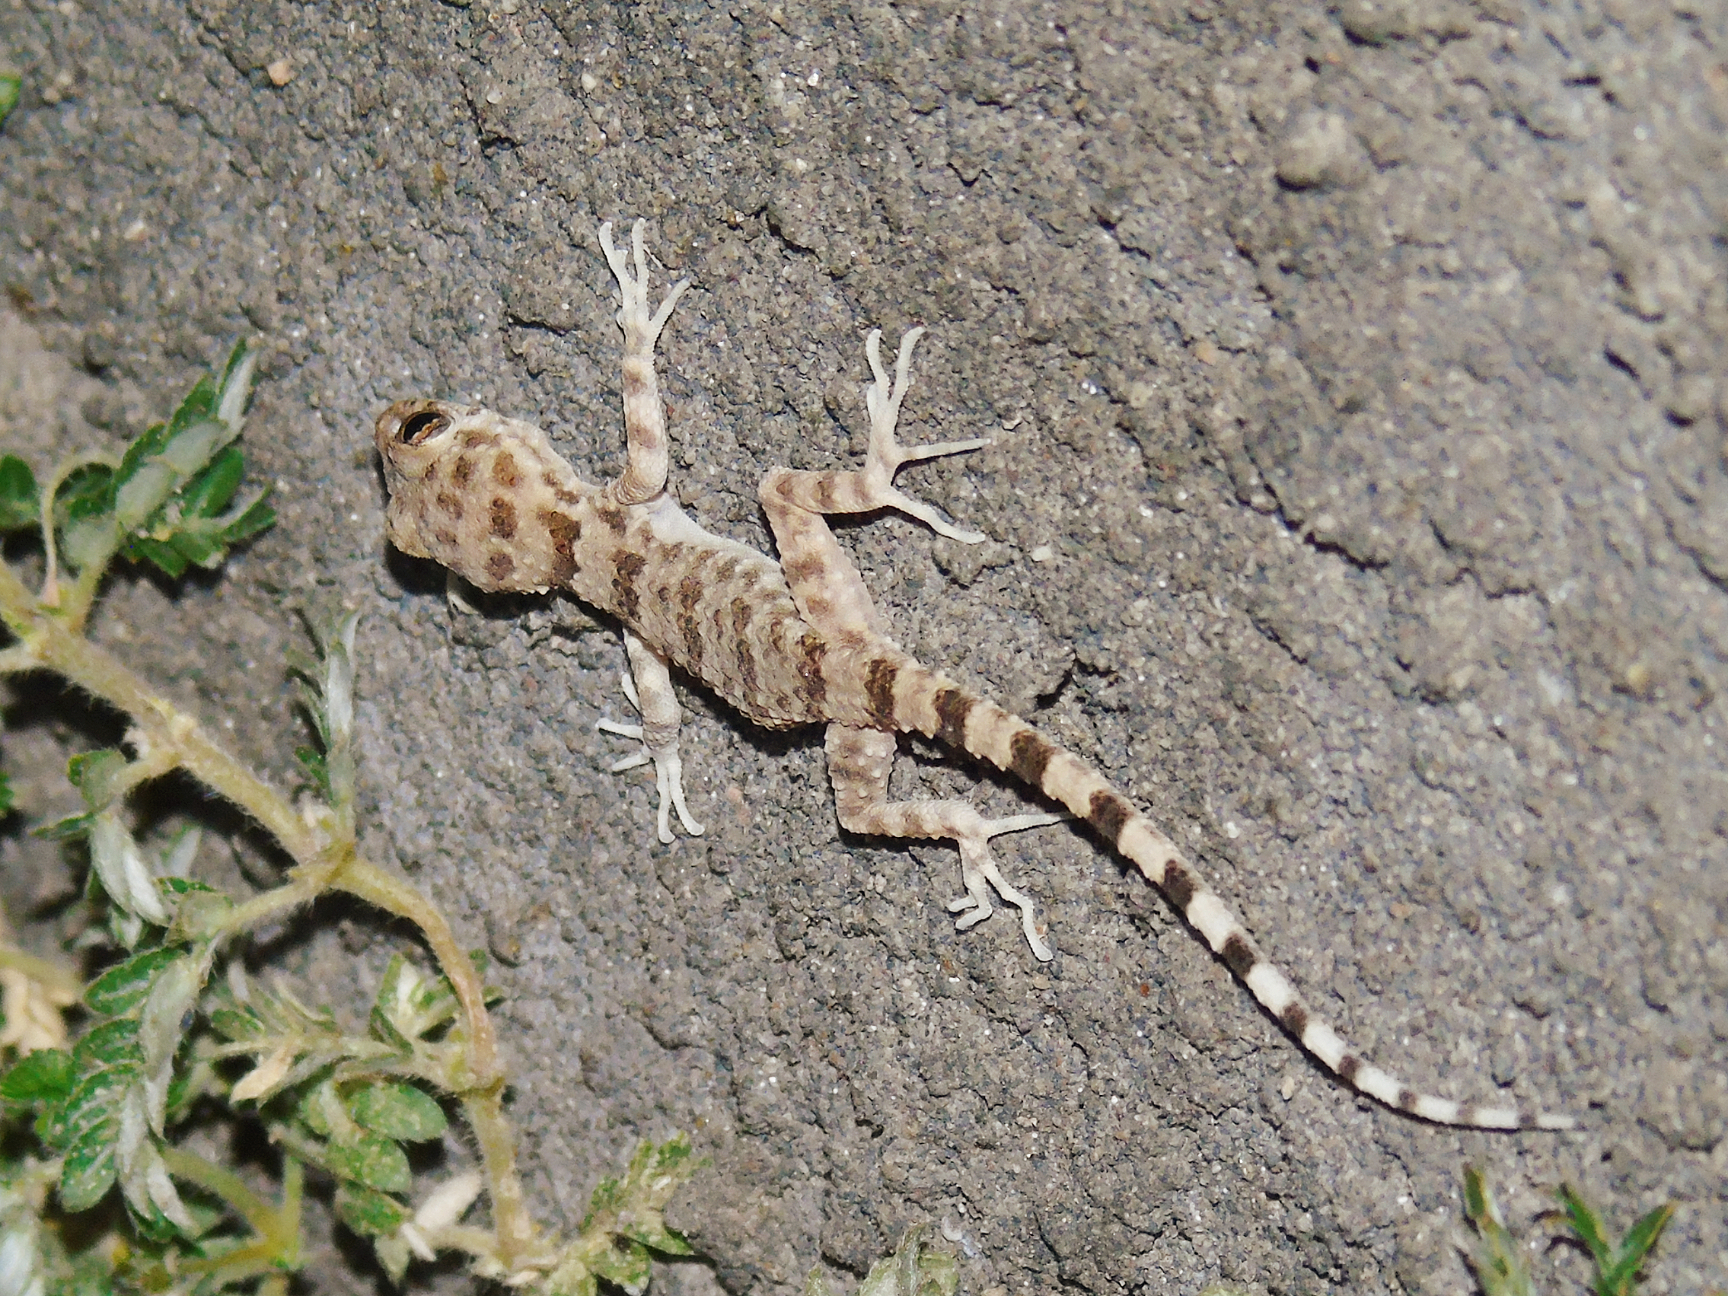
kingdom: Animalia
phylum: Chordata
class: Squamata
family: Gekkonidae
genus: Tenuidactylus
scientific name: Tenuidactylus fedtschenkoi
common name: Turkestan thin-toed gecko
